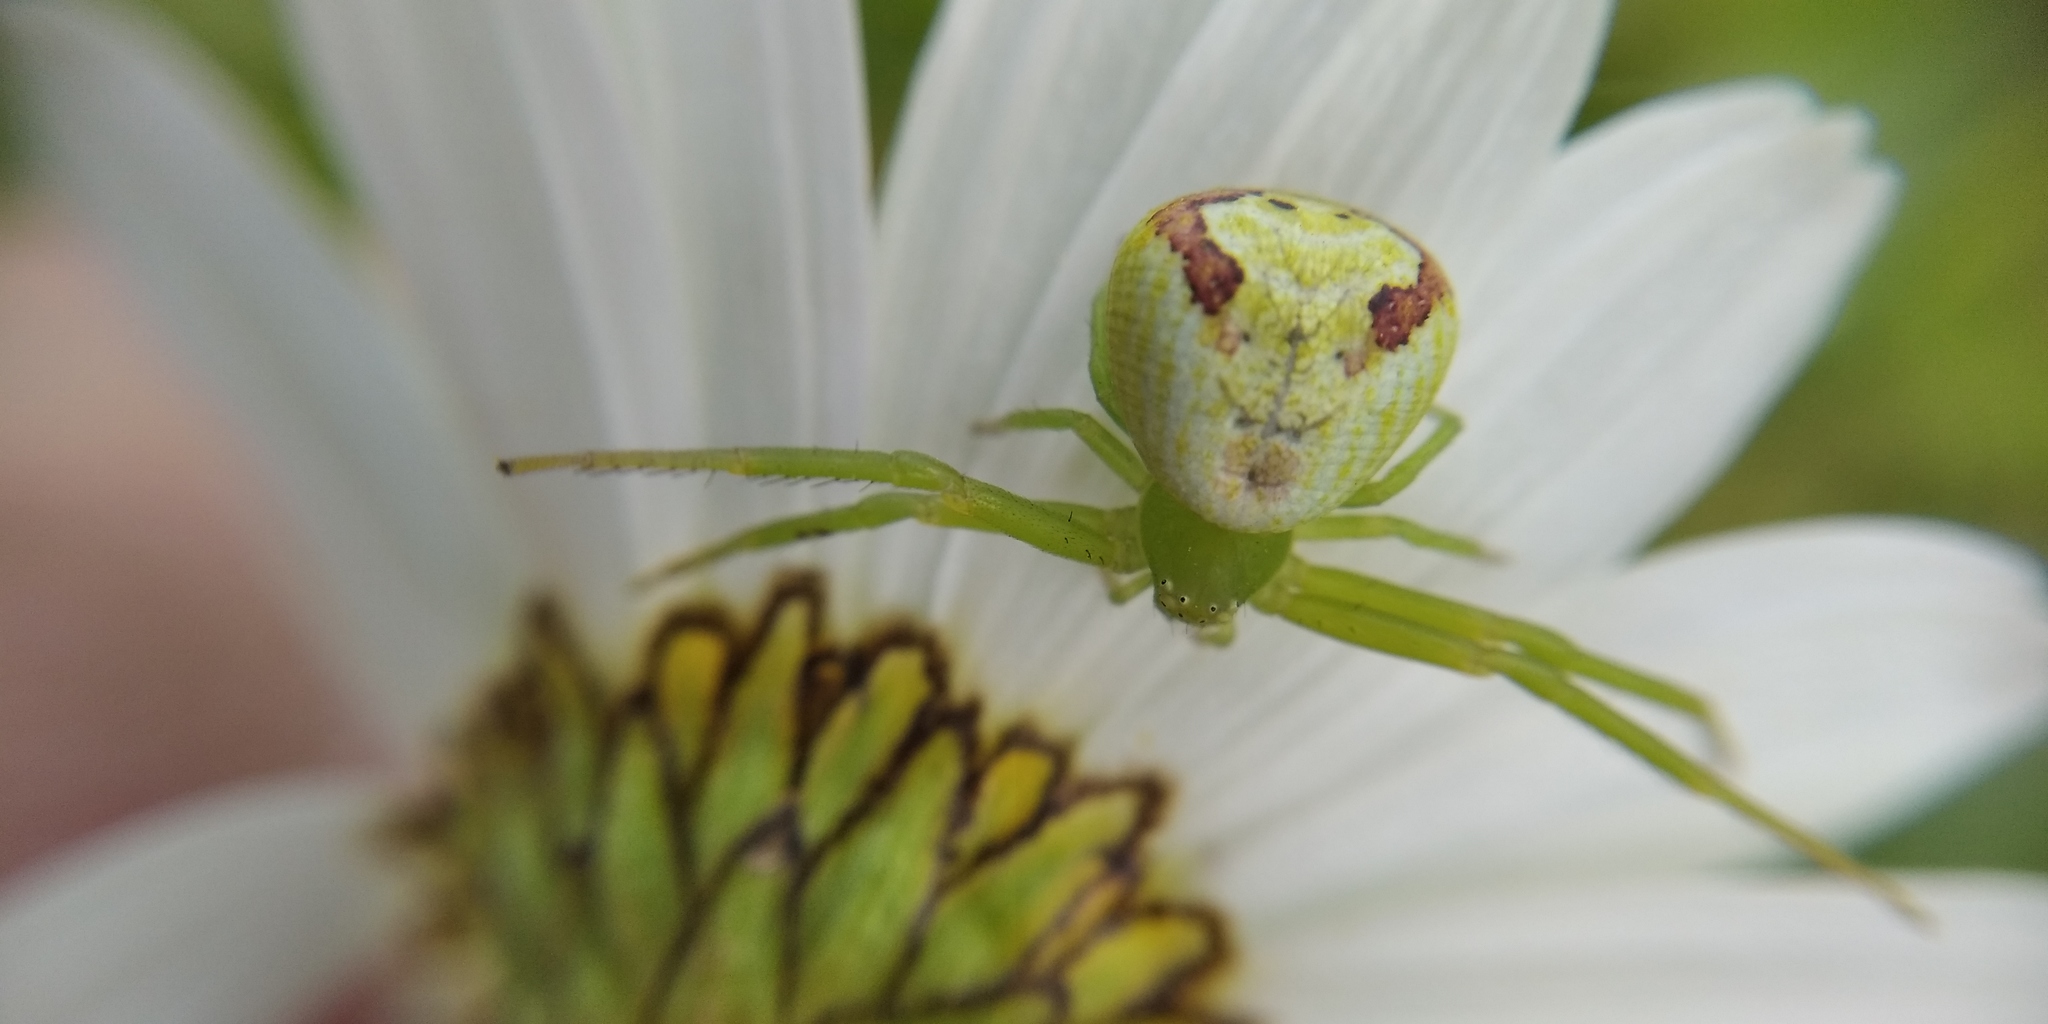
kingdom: Animalia
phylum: Arthropoda
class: Arachnida
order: Araneae
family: Thomisidae
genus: Ebrechtella
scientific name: Ebrechtella tricuspidata
